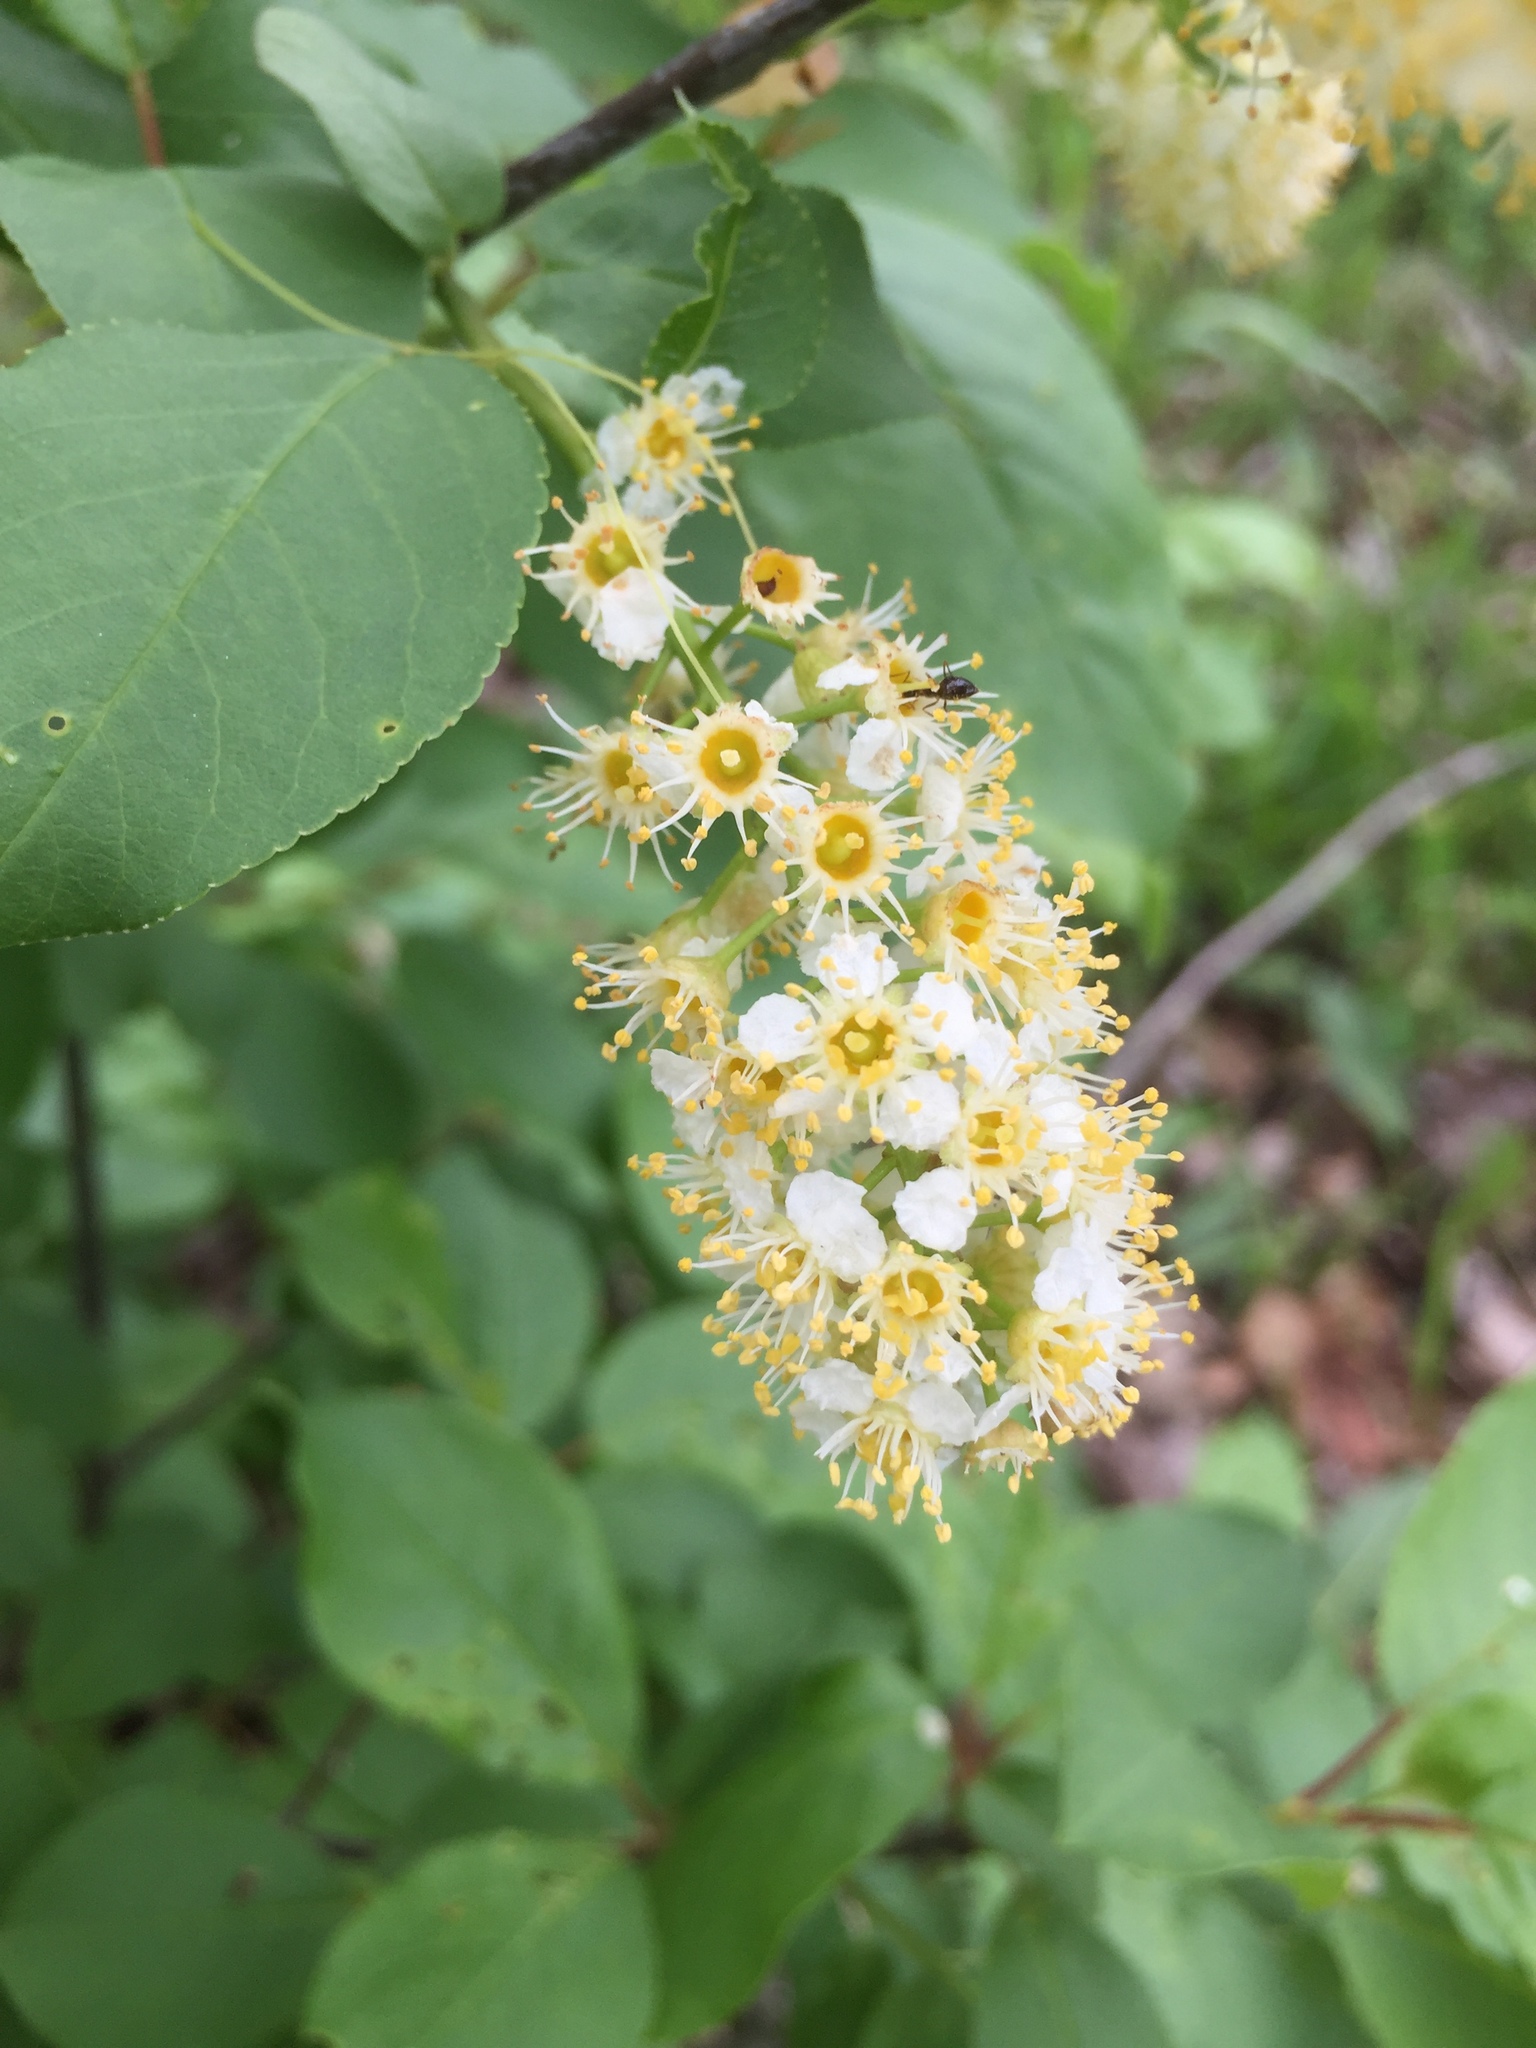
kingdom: Plantae
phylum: Tracheophyta
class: Magnoliopsida
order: Rosales
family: Rosaceae
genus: Prunus
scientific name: Prunus virginiana
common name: Chokecherry
